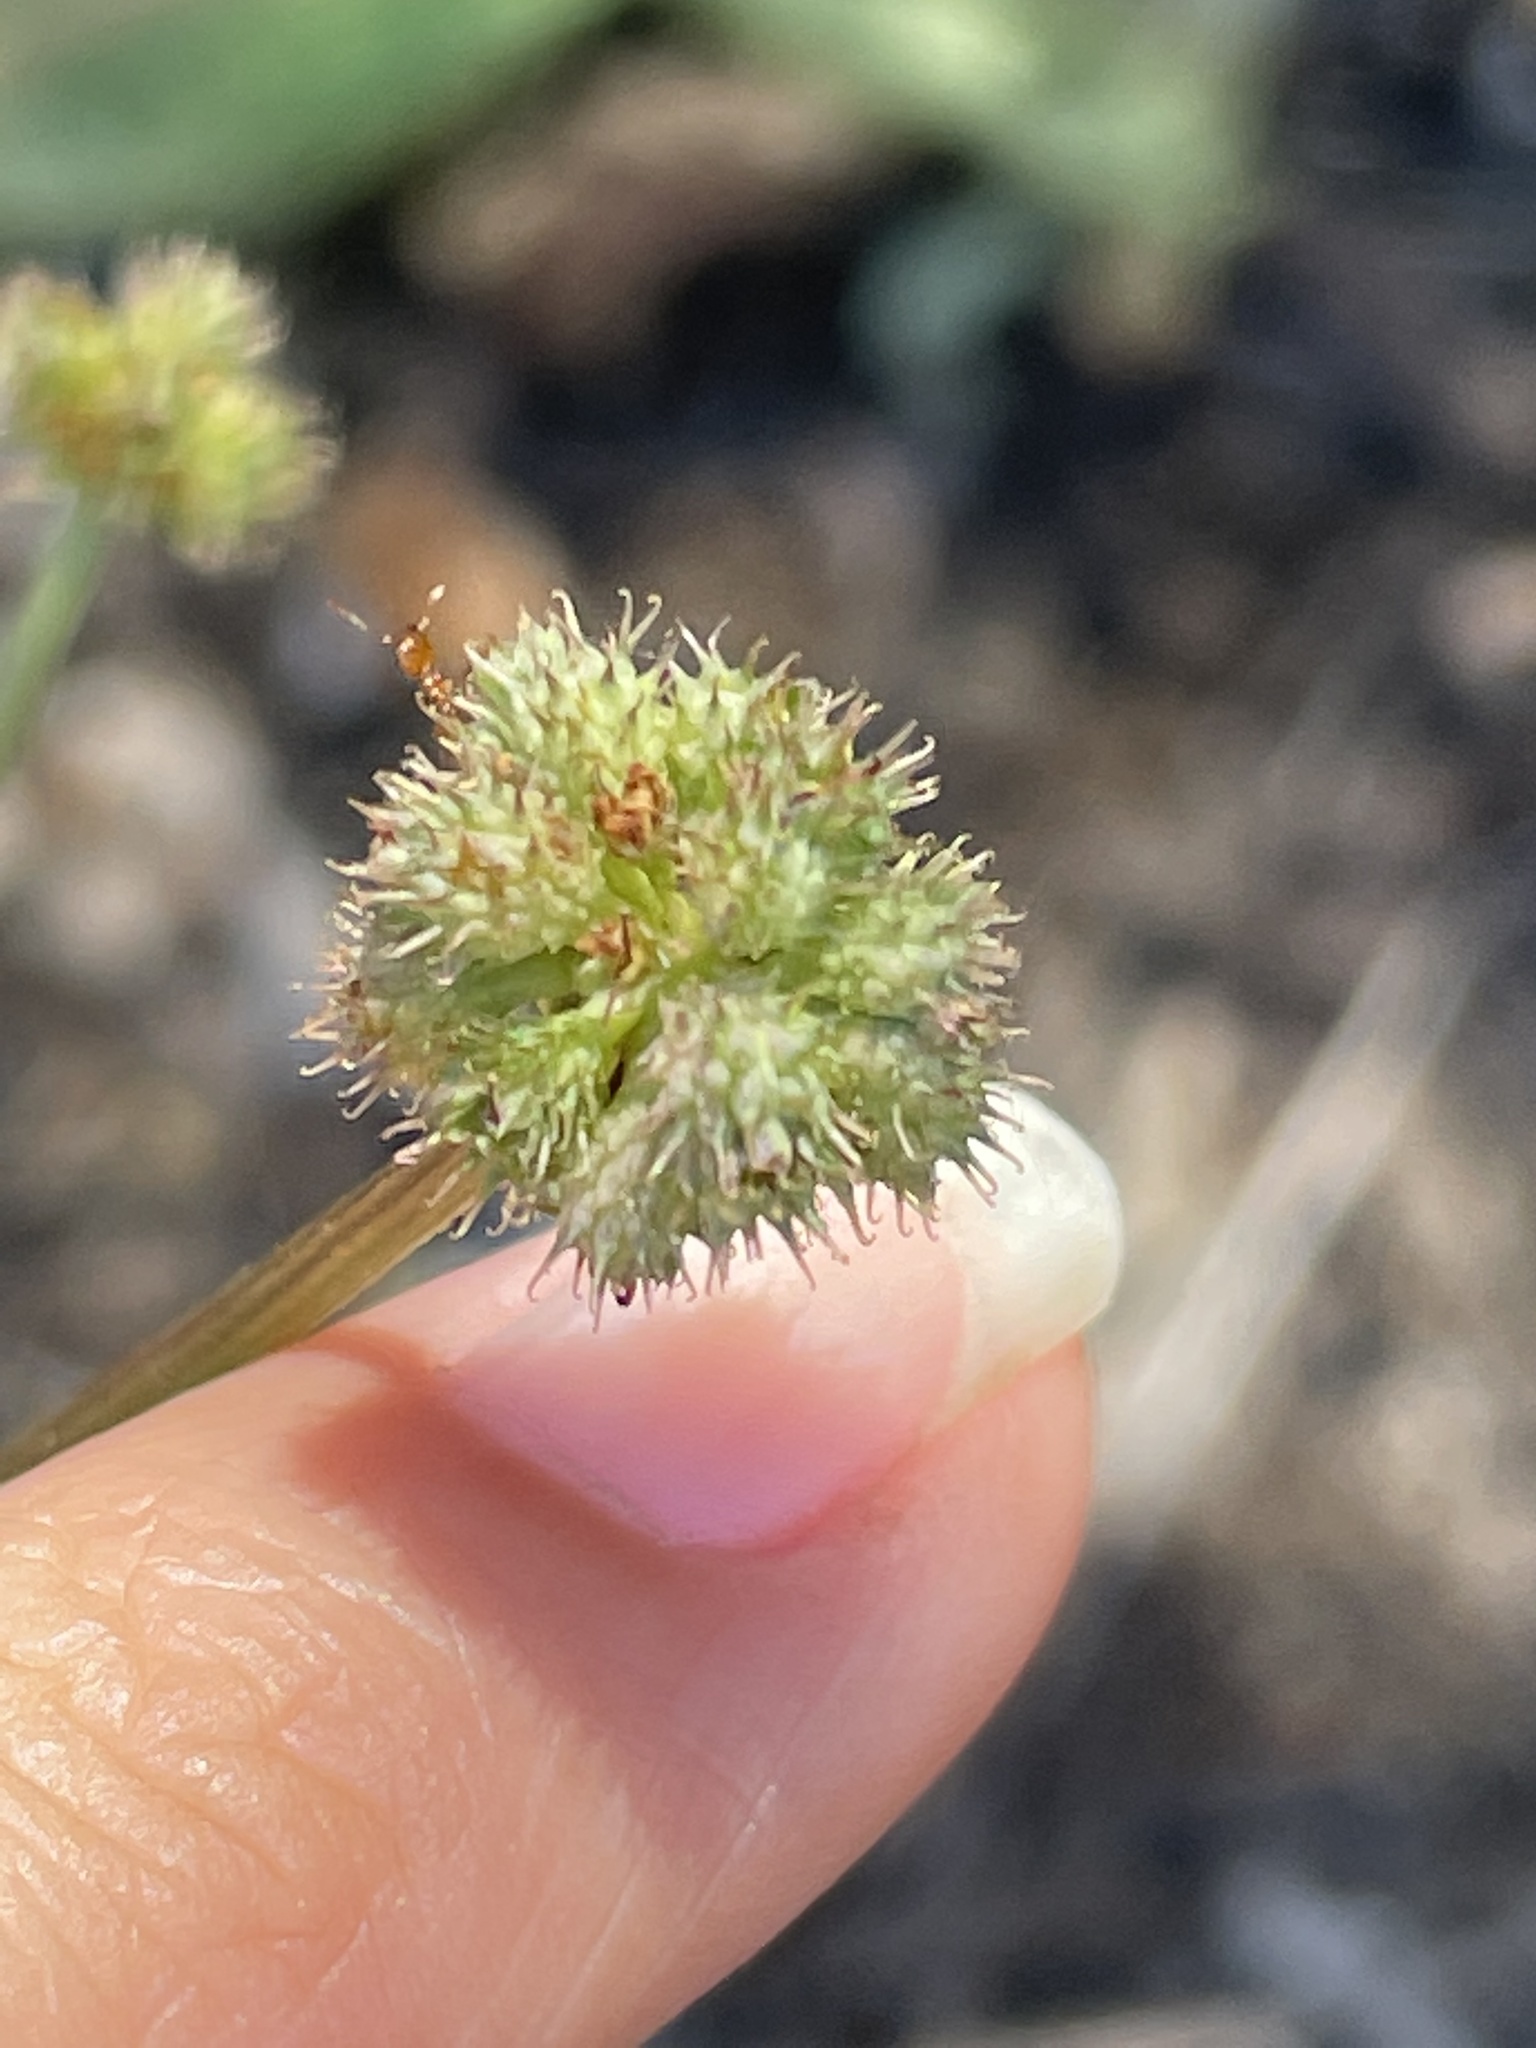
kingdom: Plantae
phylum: Tracheophyta
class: Magnoliopsida
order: Apiales
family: Apiaceae
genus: Sanicula
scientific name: Sanicula crassicaulis
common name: Western snakeroot
